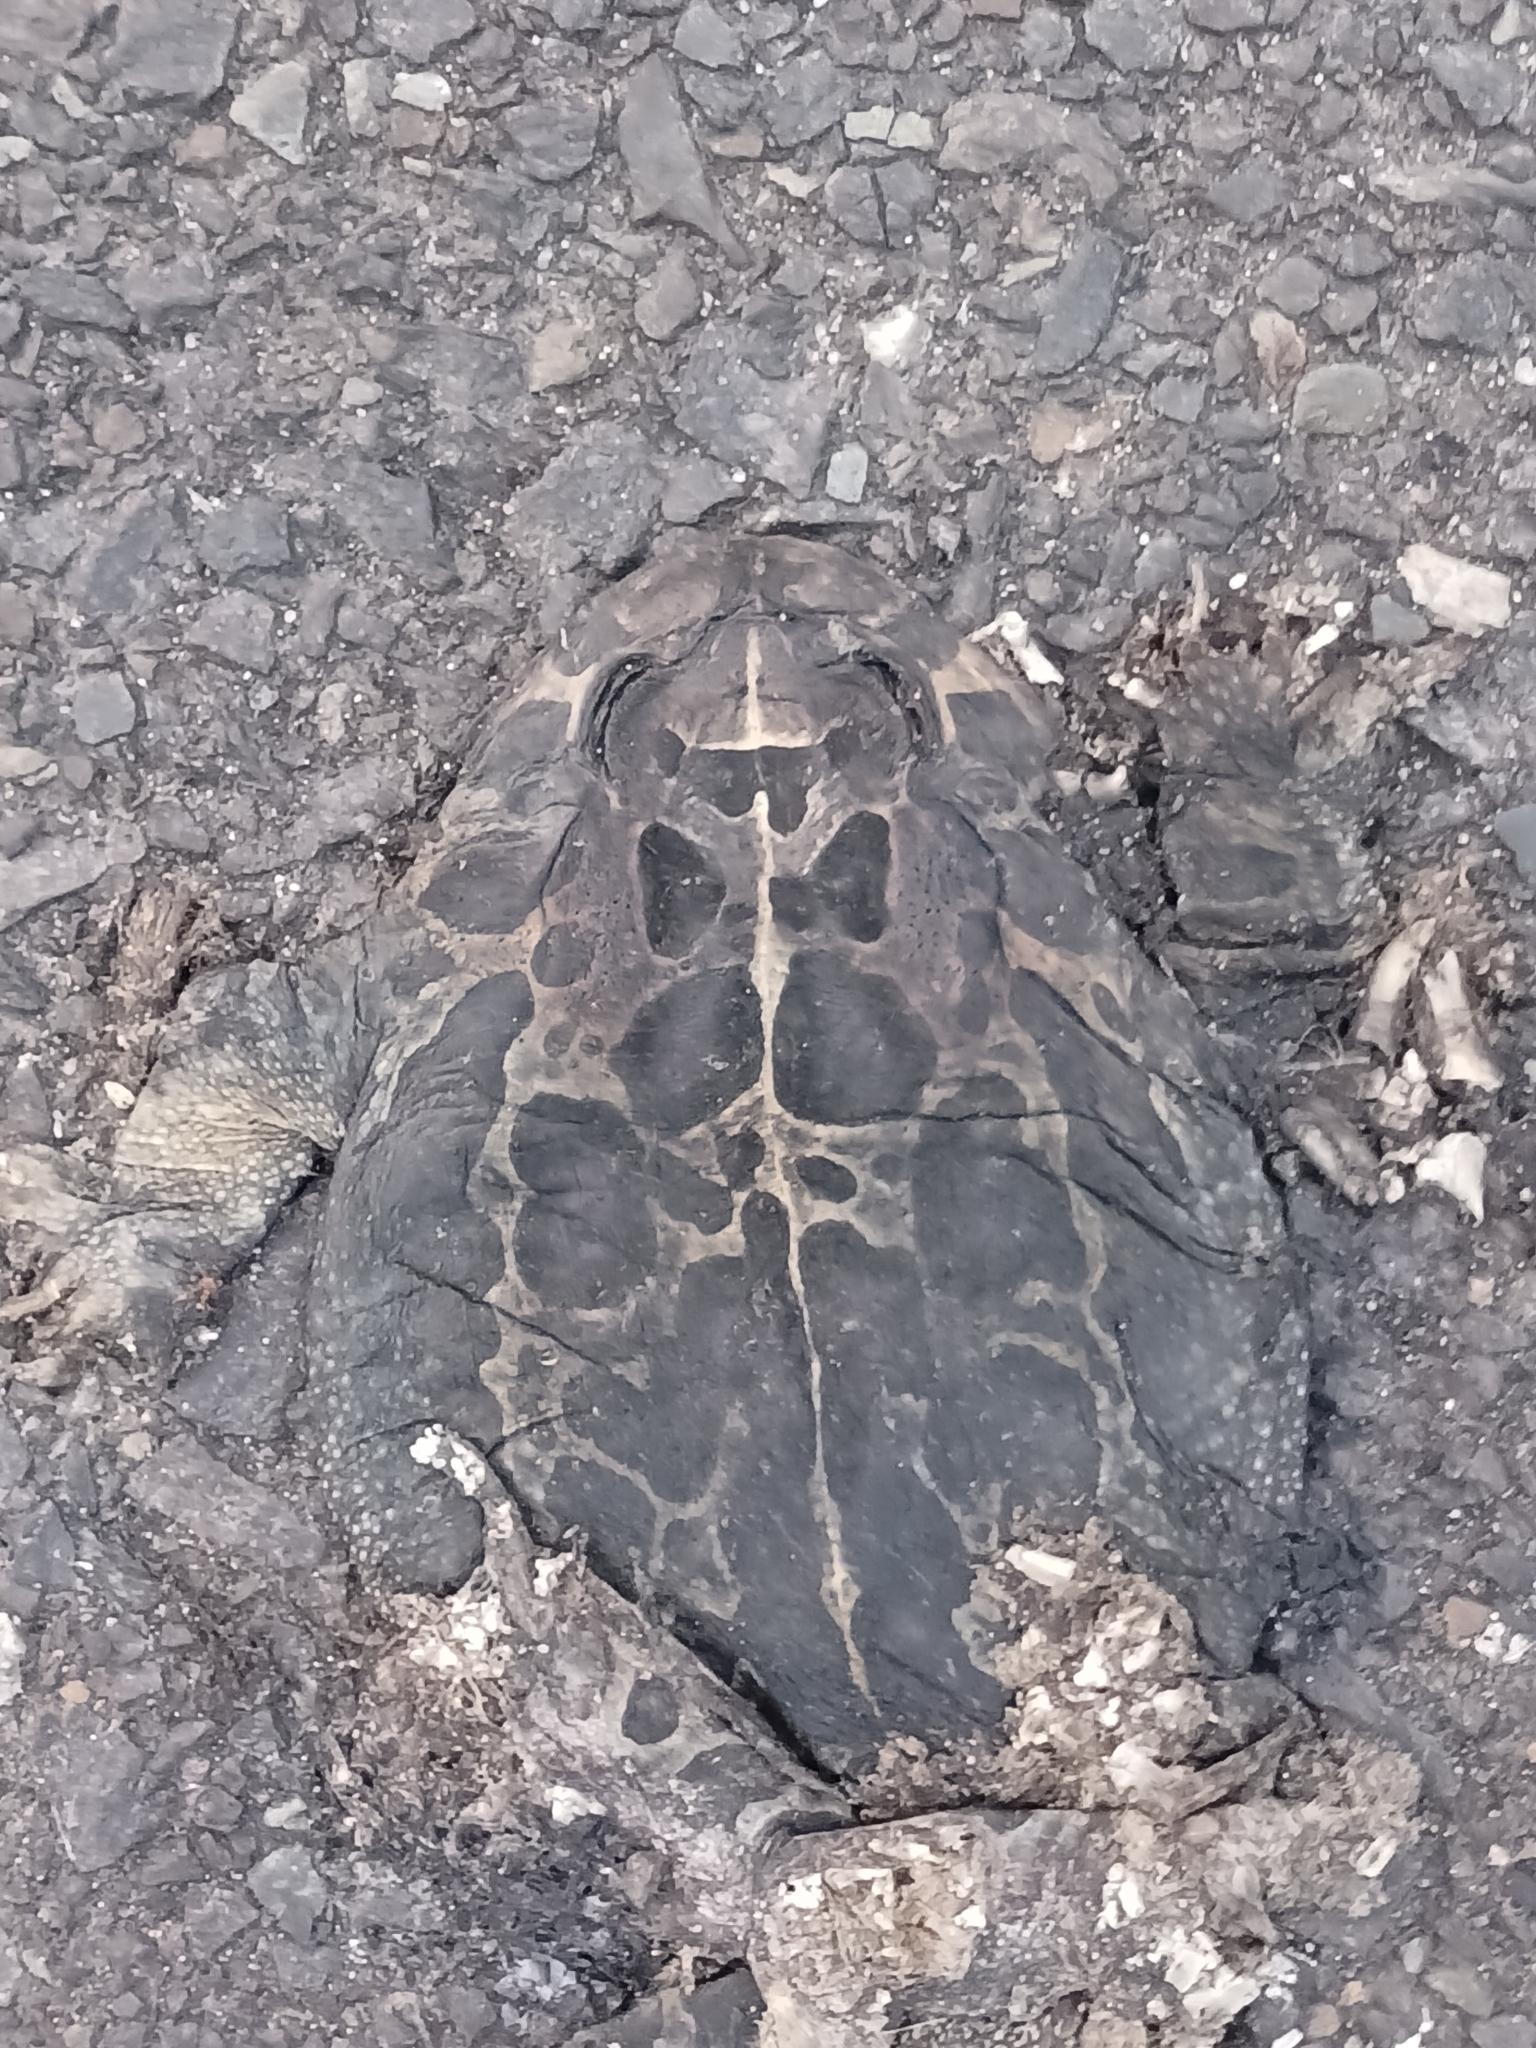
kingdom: Animalia
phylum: Chordata
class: Amphibia
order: Anura
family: Bufonidae
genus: Sclerophrys
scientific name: Sclerophrys pantherina
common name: Panther toad
